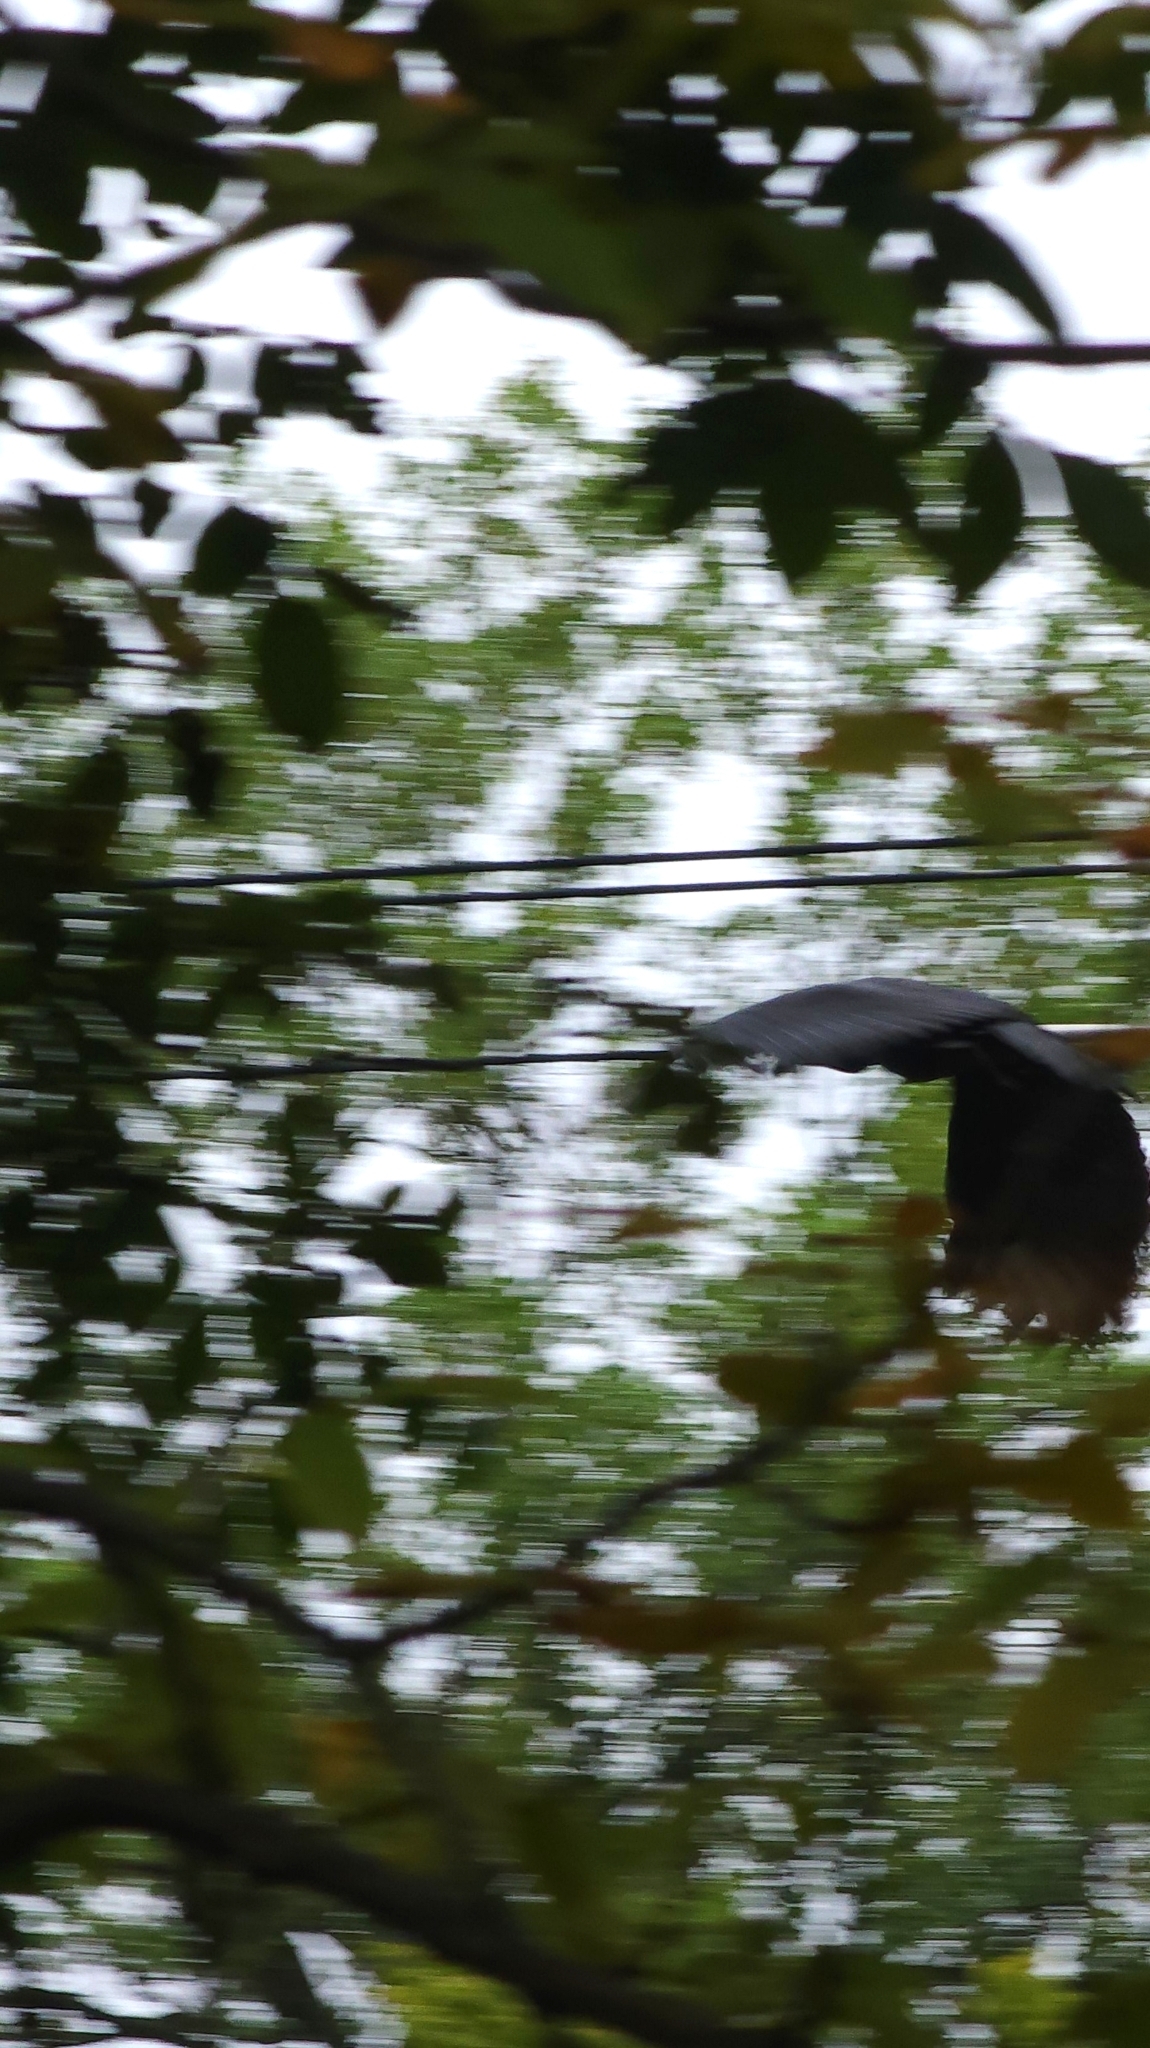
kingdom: Animalia
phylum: Chordata
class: Aves
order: Accipitriformes
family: Cathartidae
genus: Coragyps
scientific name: Coragyps atratus
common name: Black vulture
